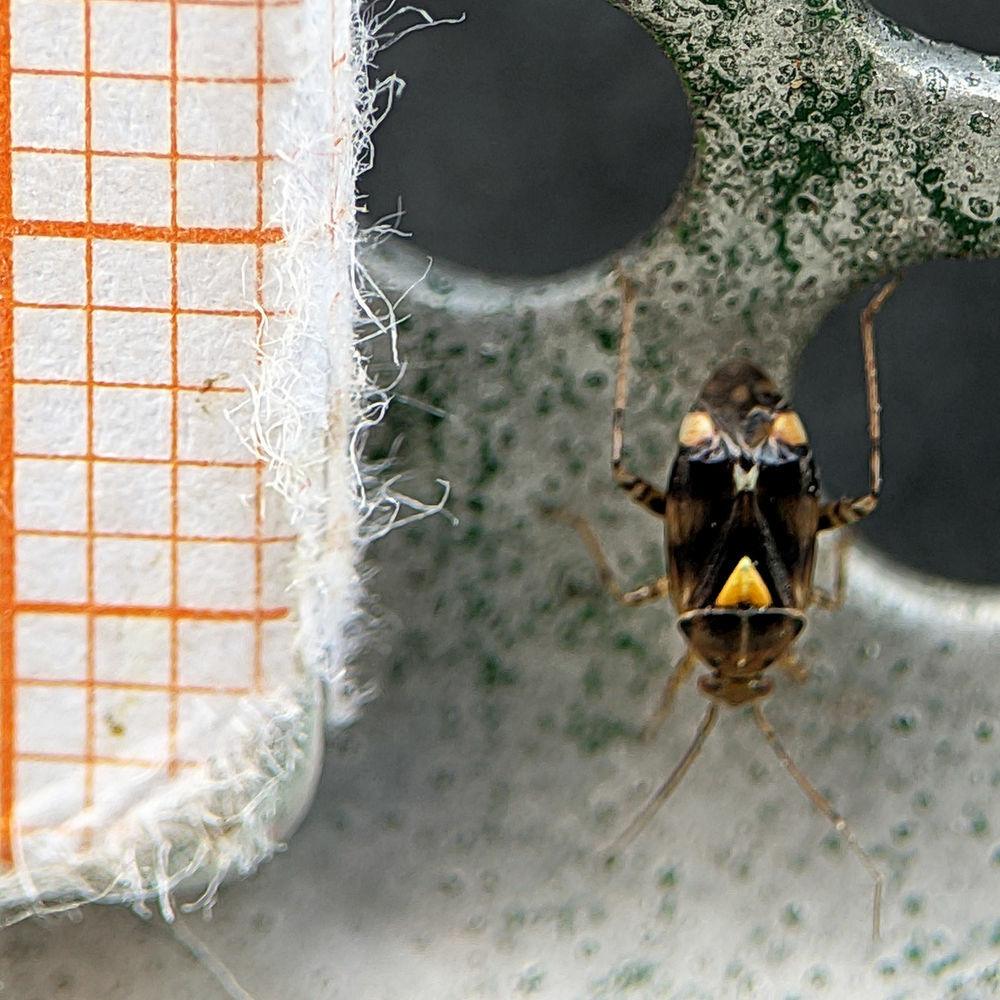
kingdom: Animalia
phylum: Arthropoda
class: Insecta
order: Hemiptera
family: Miridae
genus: Liocoris
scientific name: Liocoris tripustulatus
